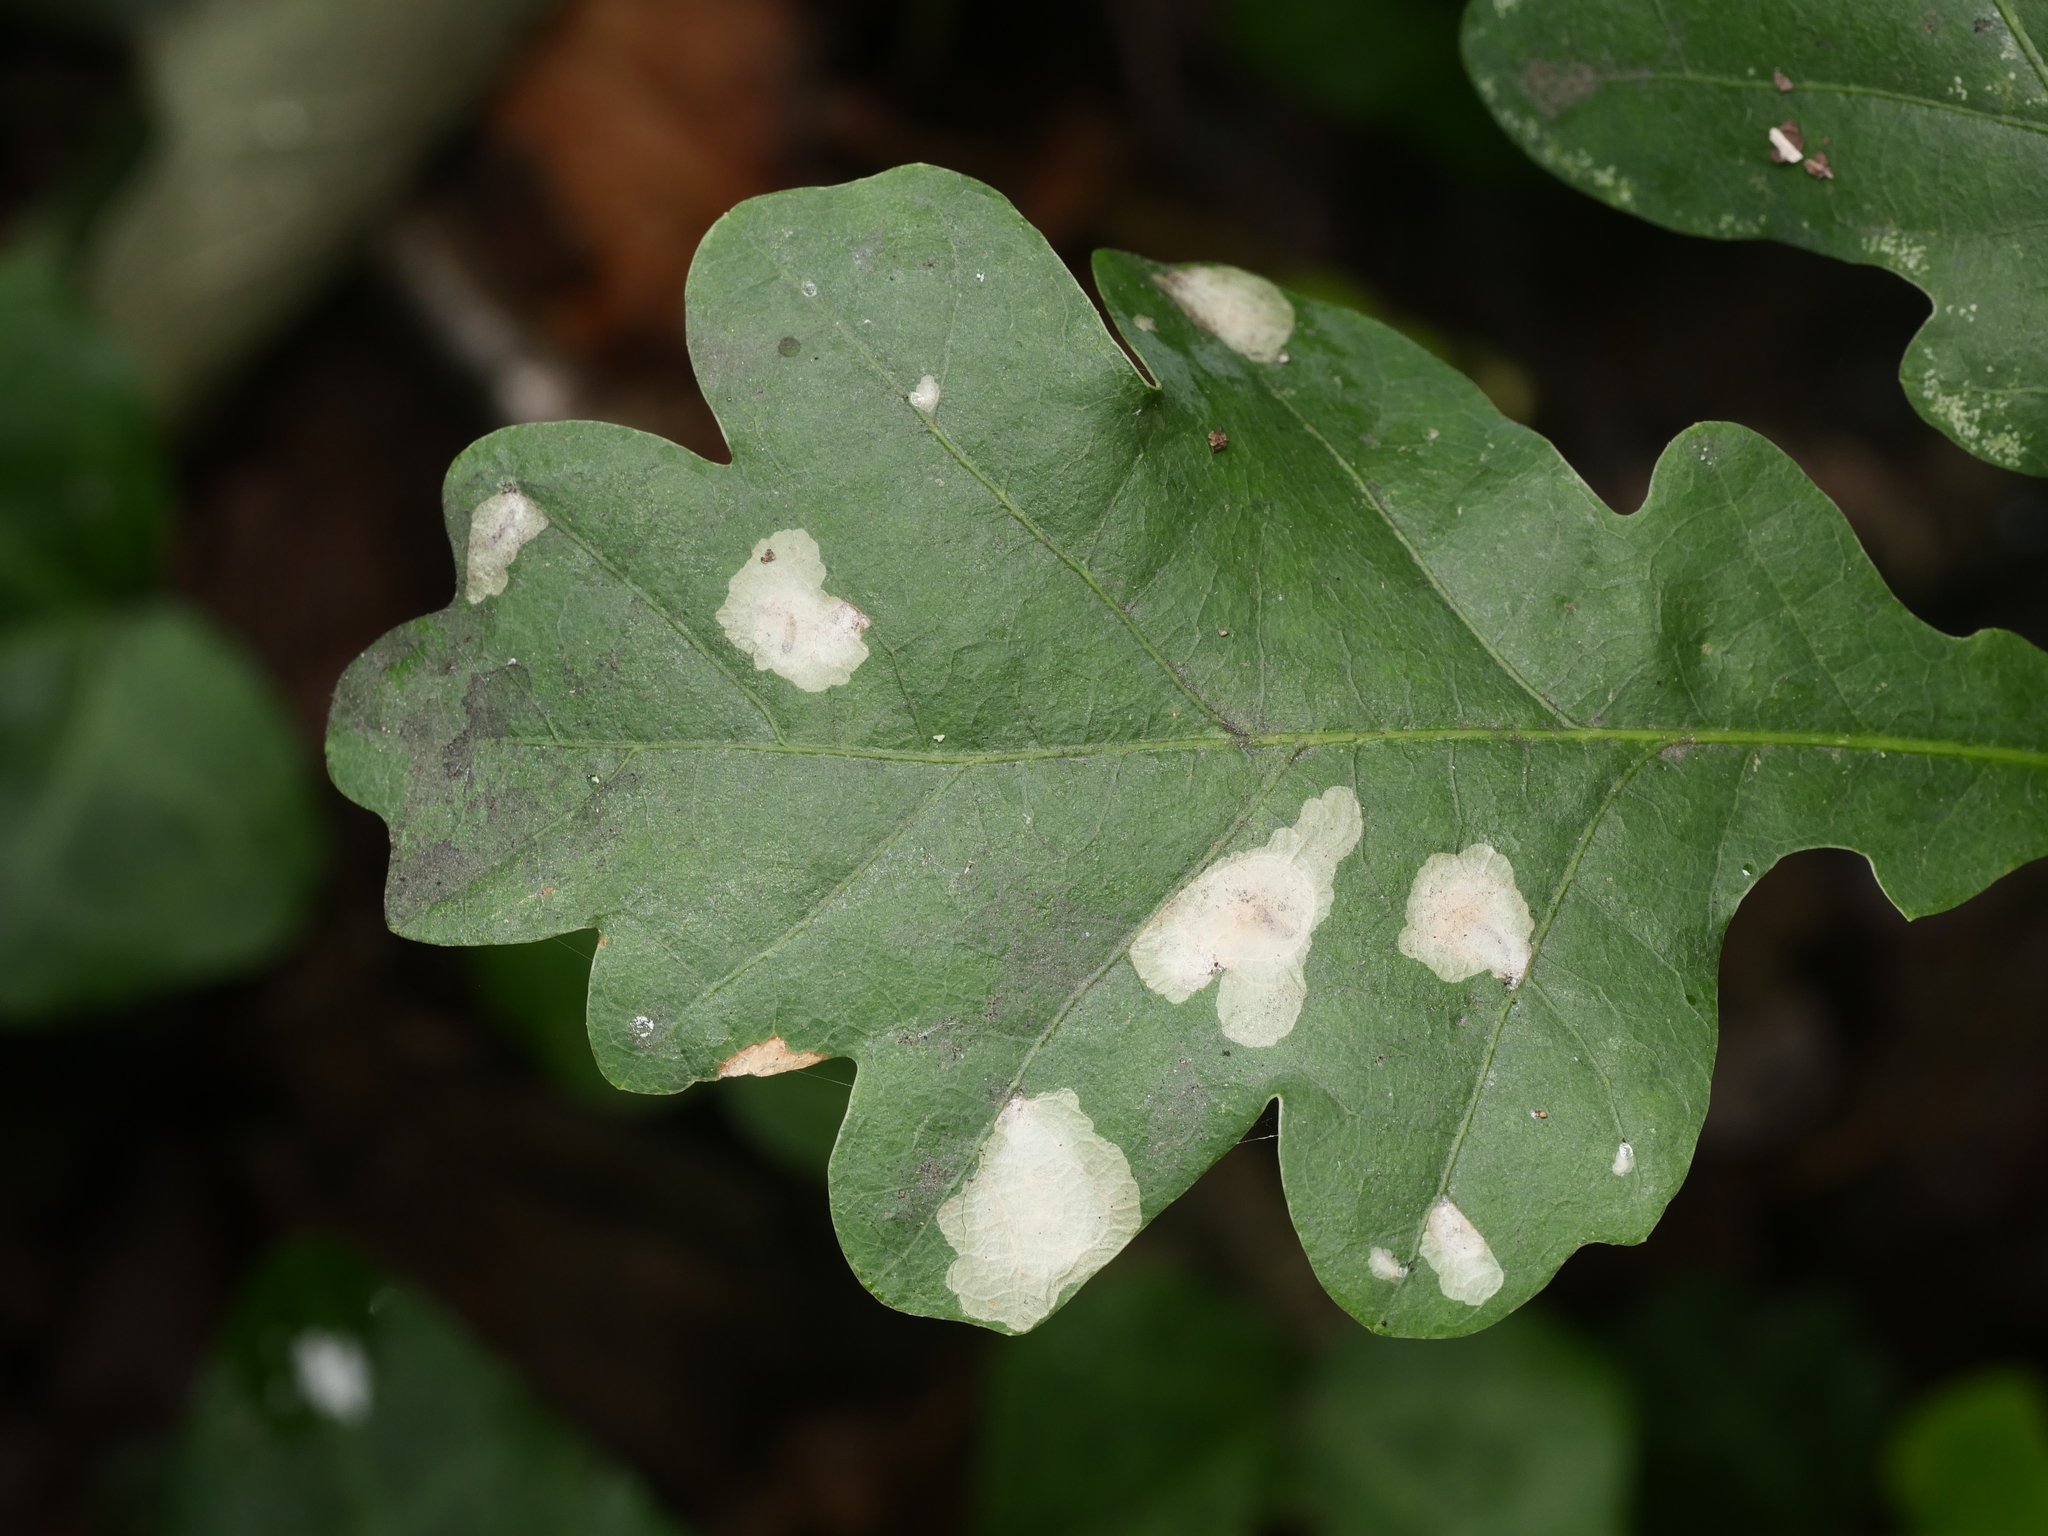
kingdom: Animalia
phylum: Arthropoda
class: Insecta
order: Lepidoptera
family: Tischeriidae
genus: Tischeria
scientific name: Tischeria ekebladella
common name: Oak carl
